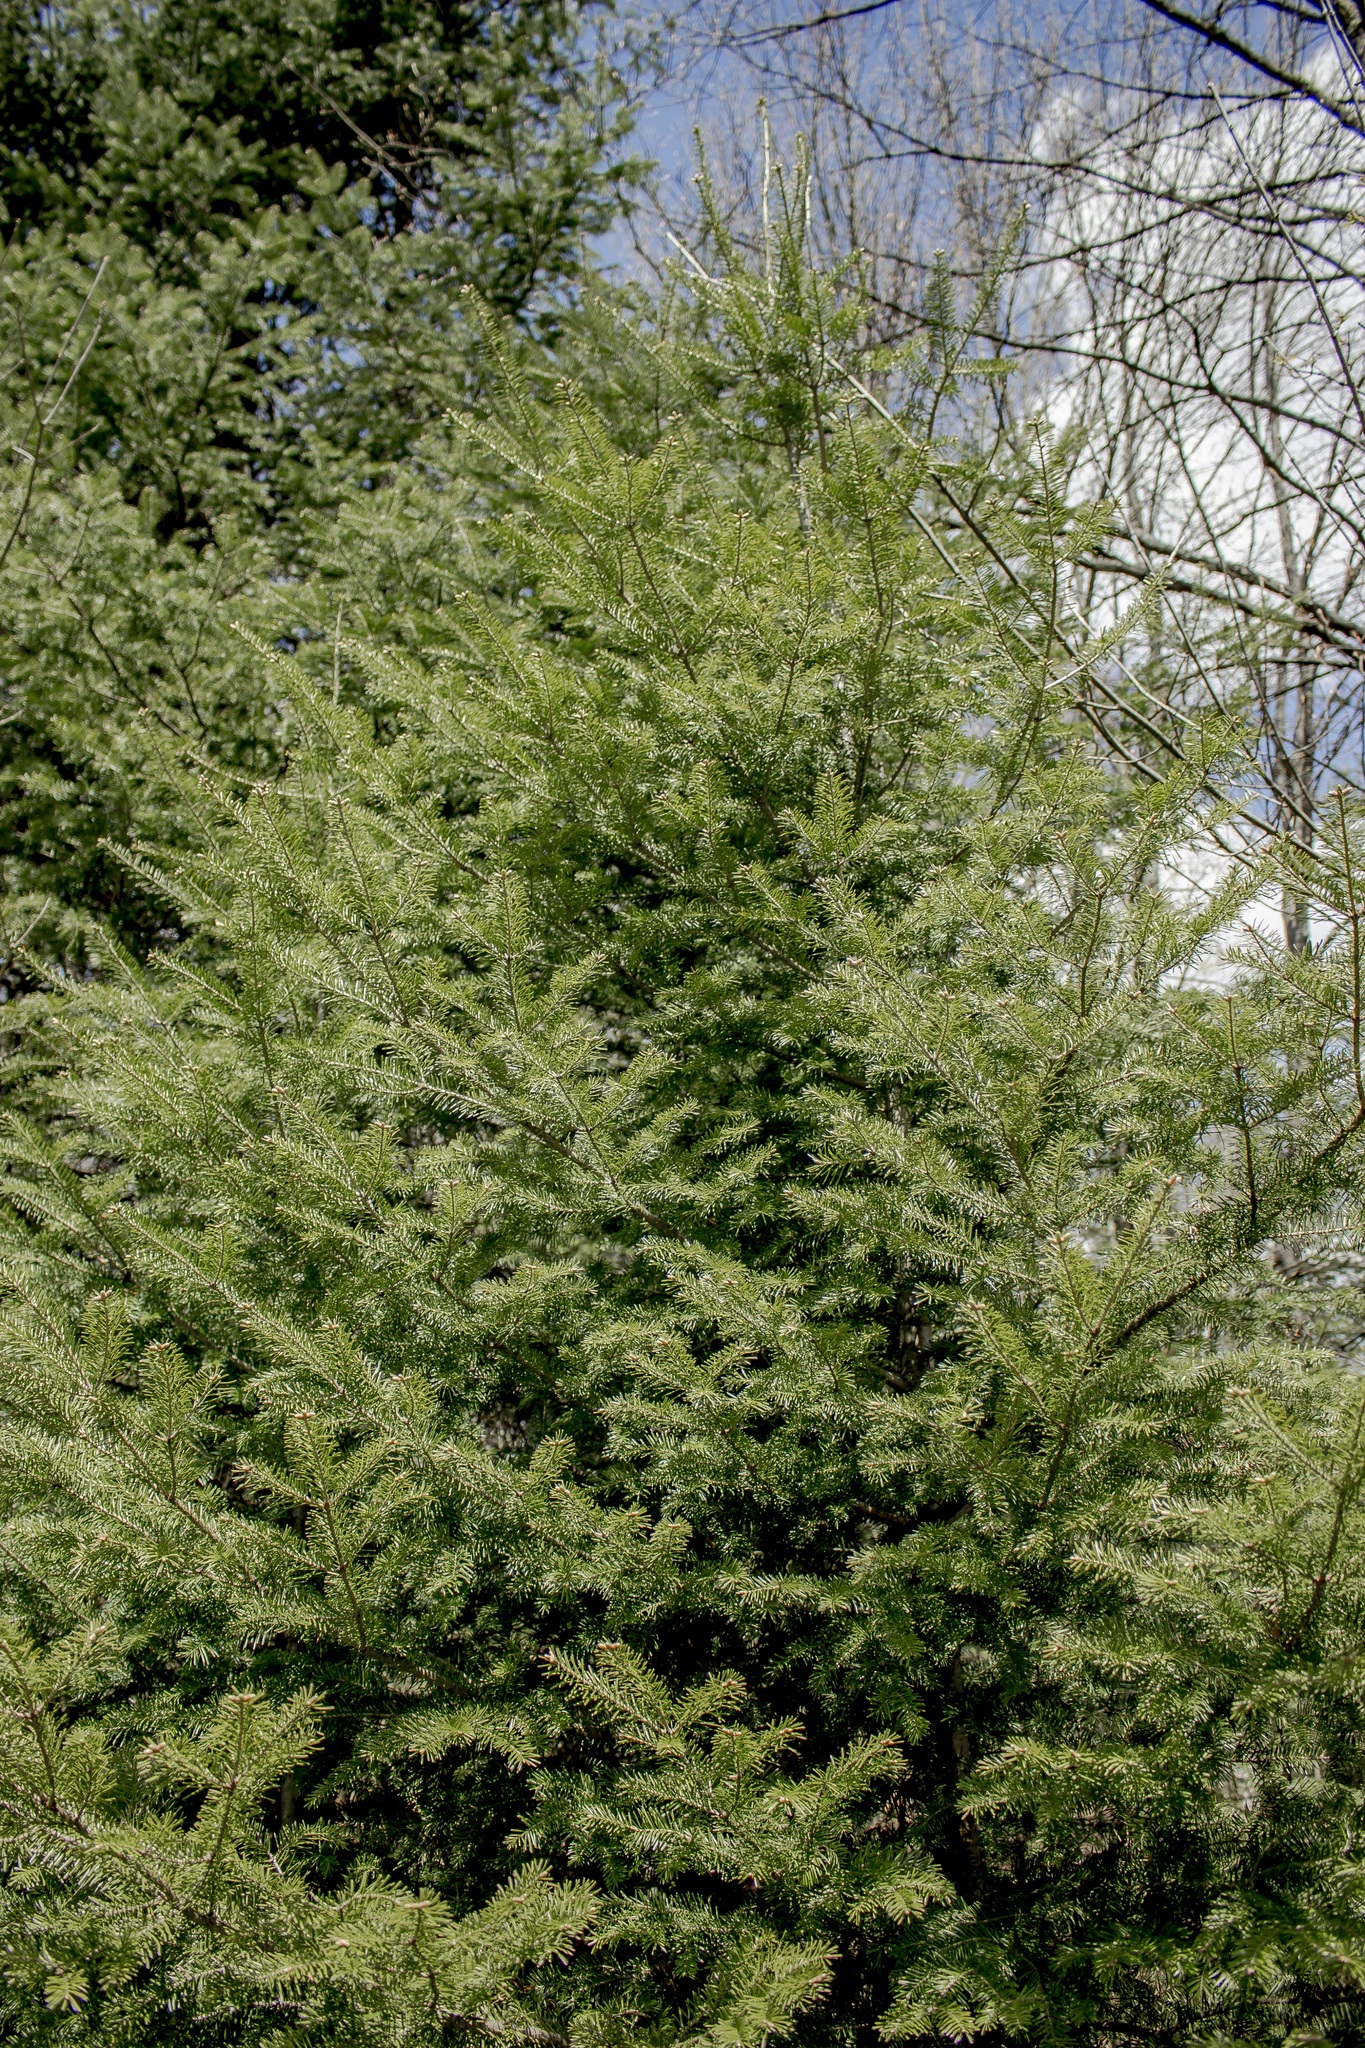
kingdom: Plantae
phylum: Tracheophyta
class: Pinopsida
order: Pinales
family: Pinaceae
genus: Abies
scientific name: Abies balsamea
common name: Balsam fir
